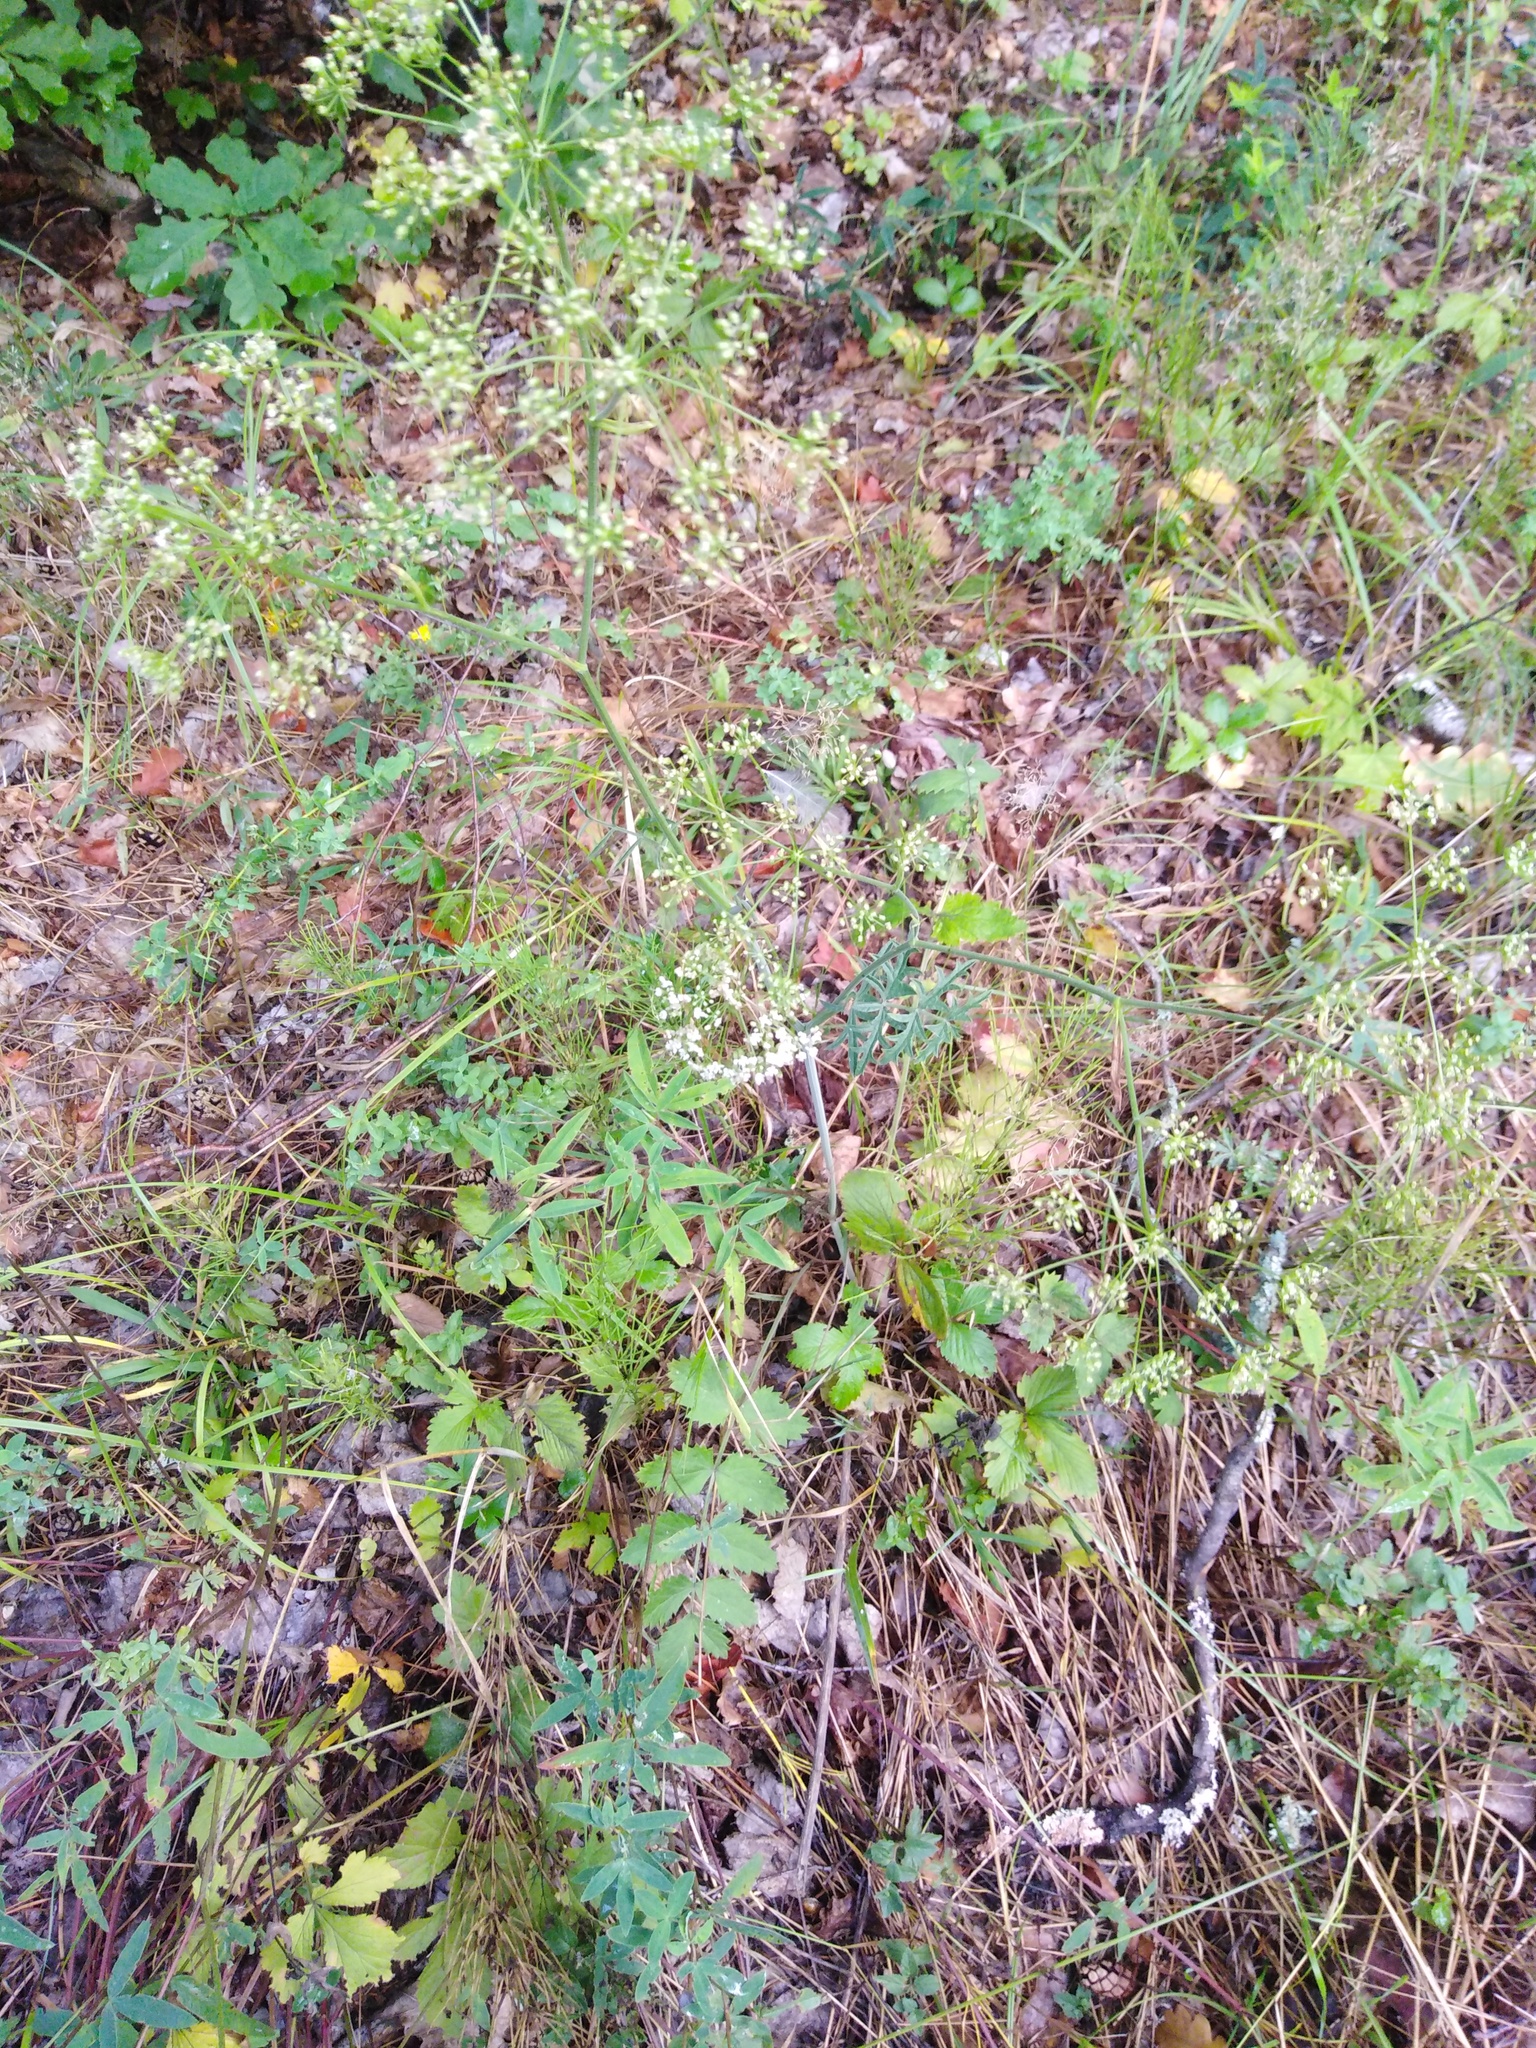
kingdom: Plantae
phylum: Tracheophyta
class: Magnoliopsida
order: Apiales
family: Apiaceae
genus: Pimpinella
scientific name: Pimpinella saxifraga
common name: Burnet-saxifrage
